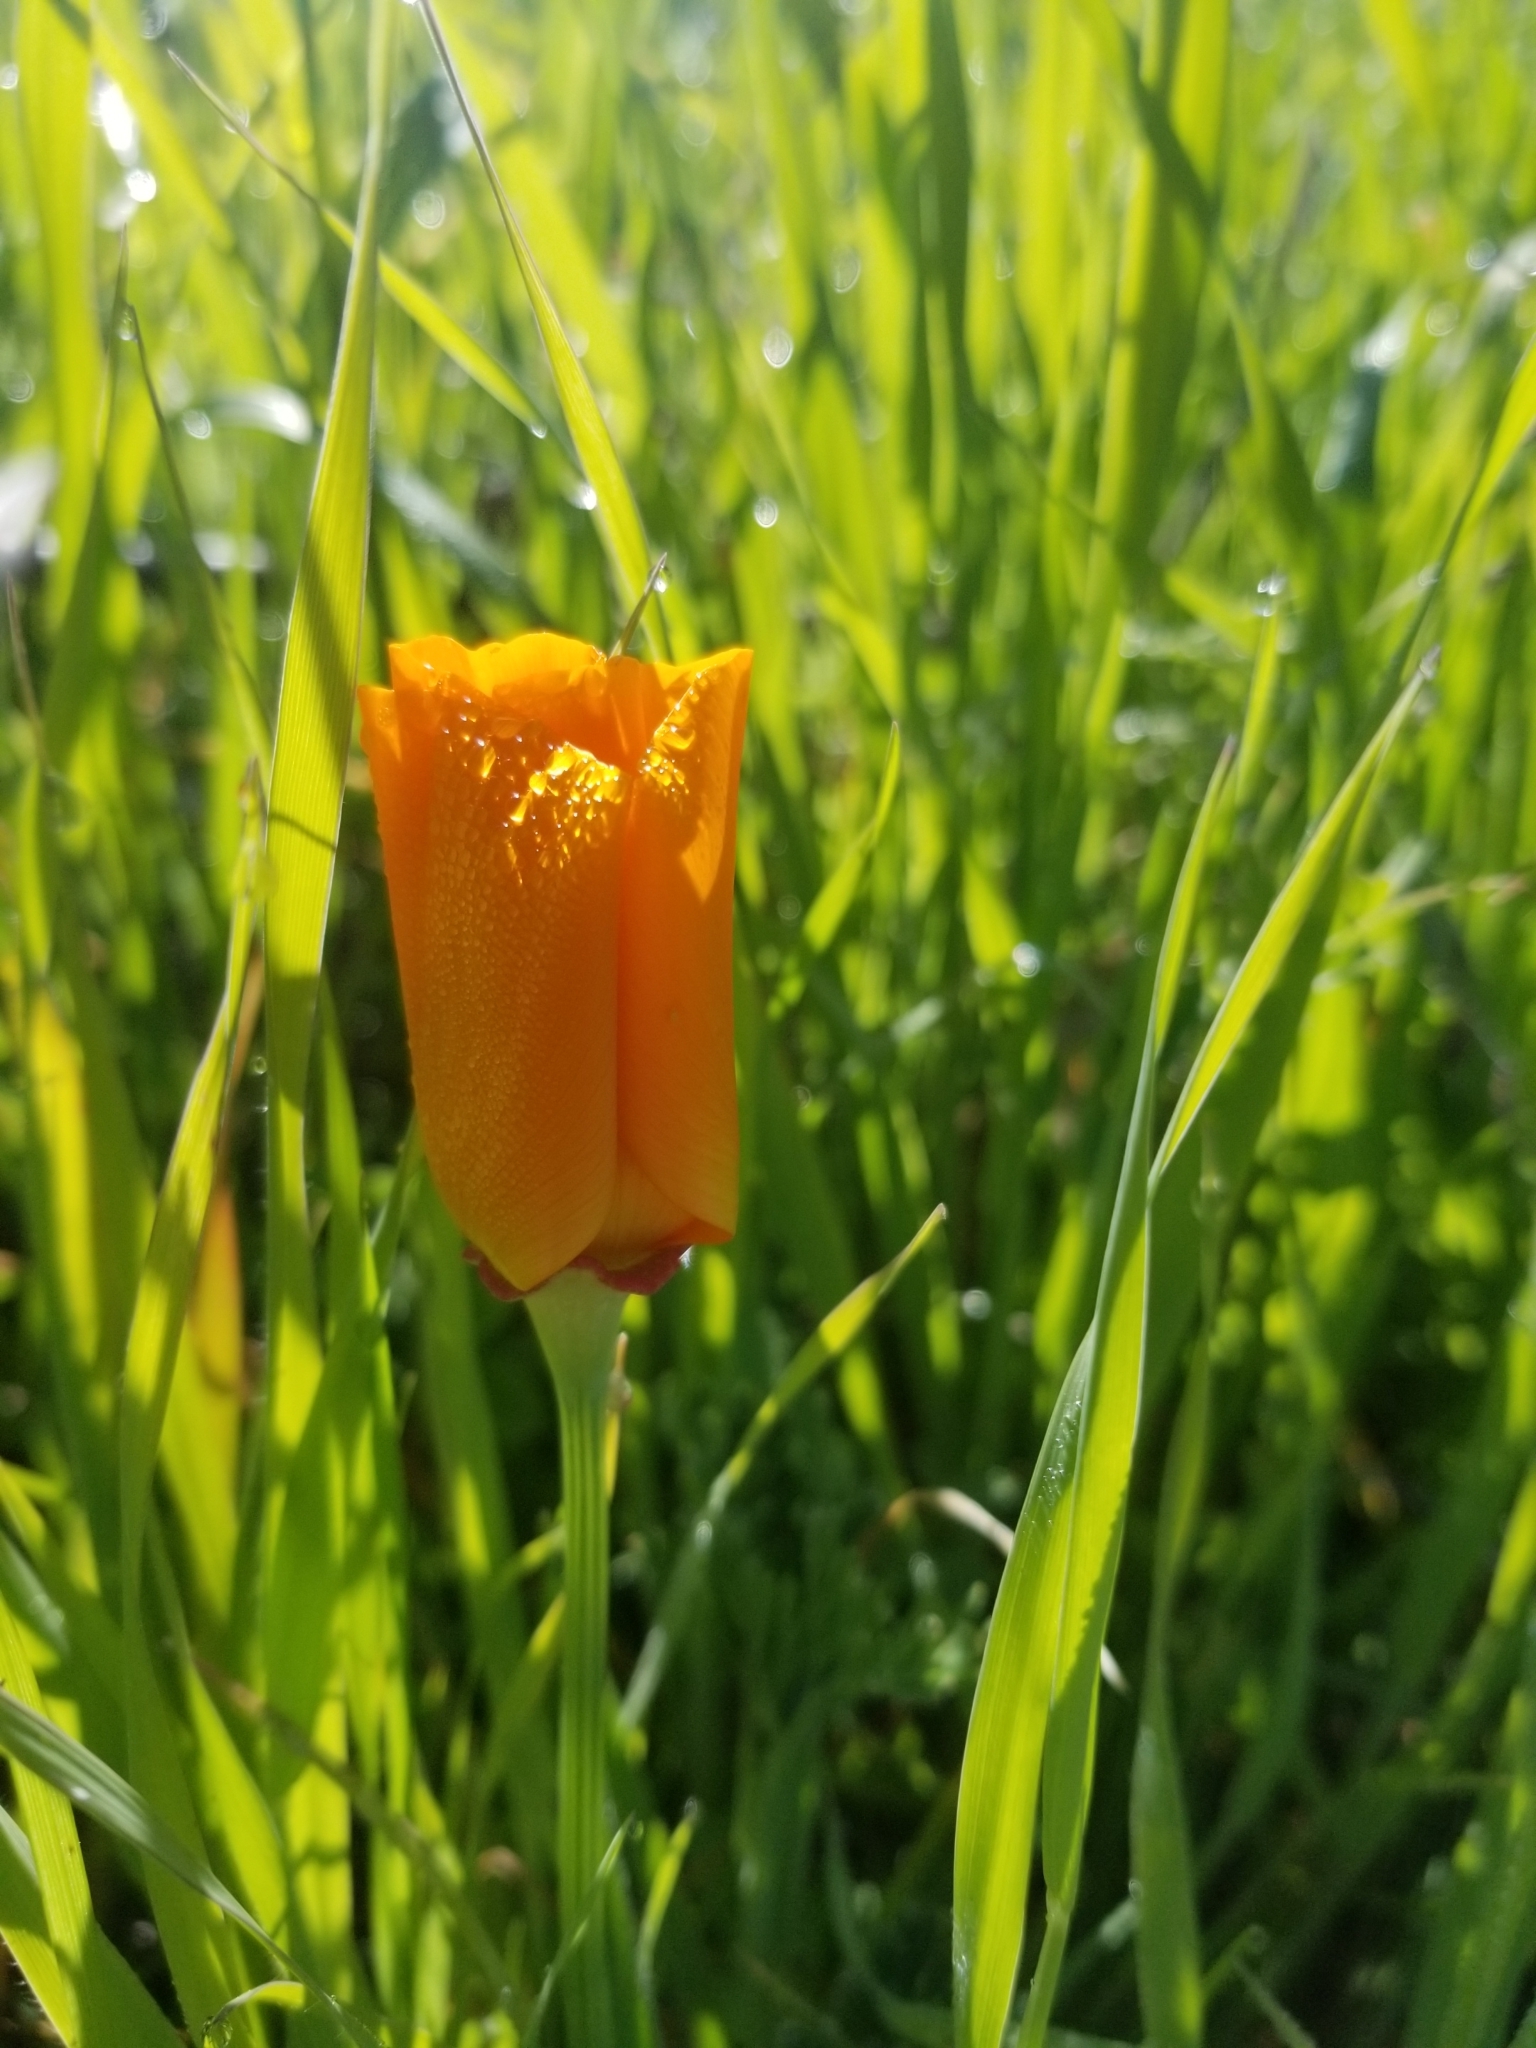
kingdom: Plantae
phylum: Tracheophyta
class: Magnoliopsida
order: Ranunculales
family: Papaveraceae
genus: Eschscholzia
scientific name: Eschscholzia californica
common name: California poppy
